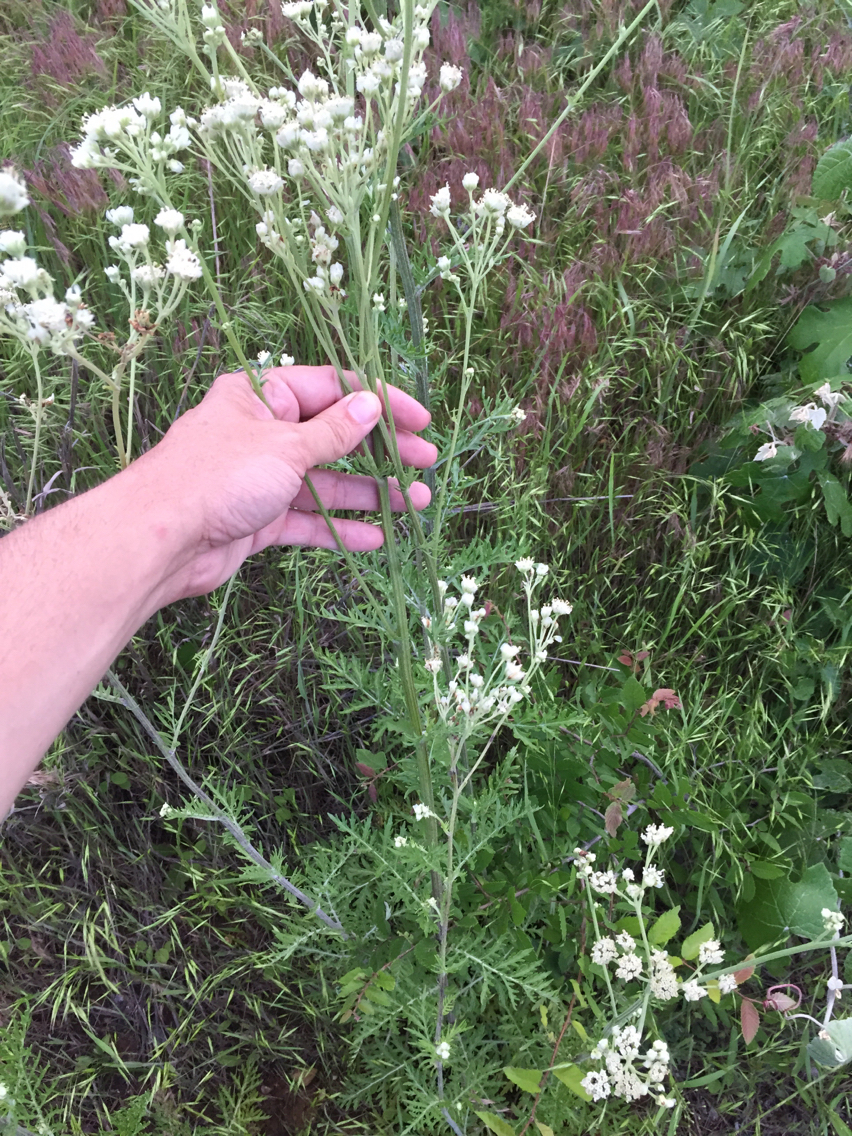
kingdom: Plantae
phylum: Tracheophyta
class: Magnoliopsida
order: Asterales
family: Asteraceae
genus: Hymenopappus
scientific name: Hymenopappus scabiosaeus
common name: Carolina woollywhite
